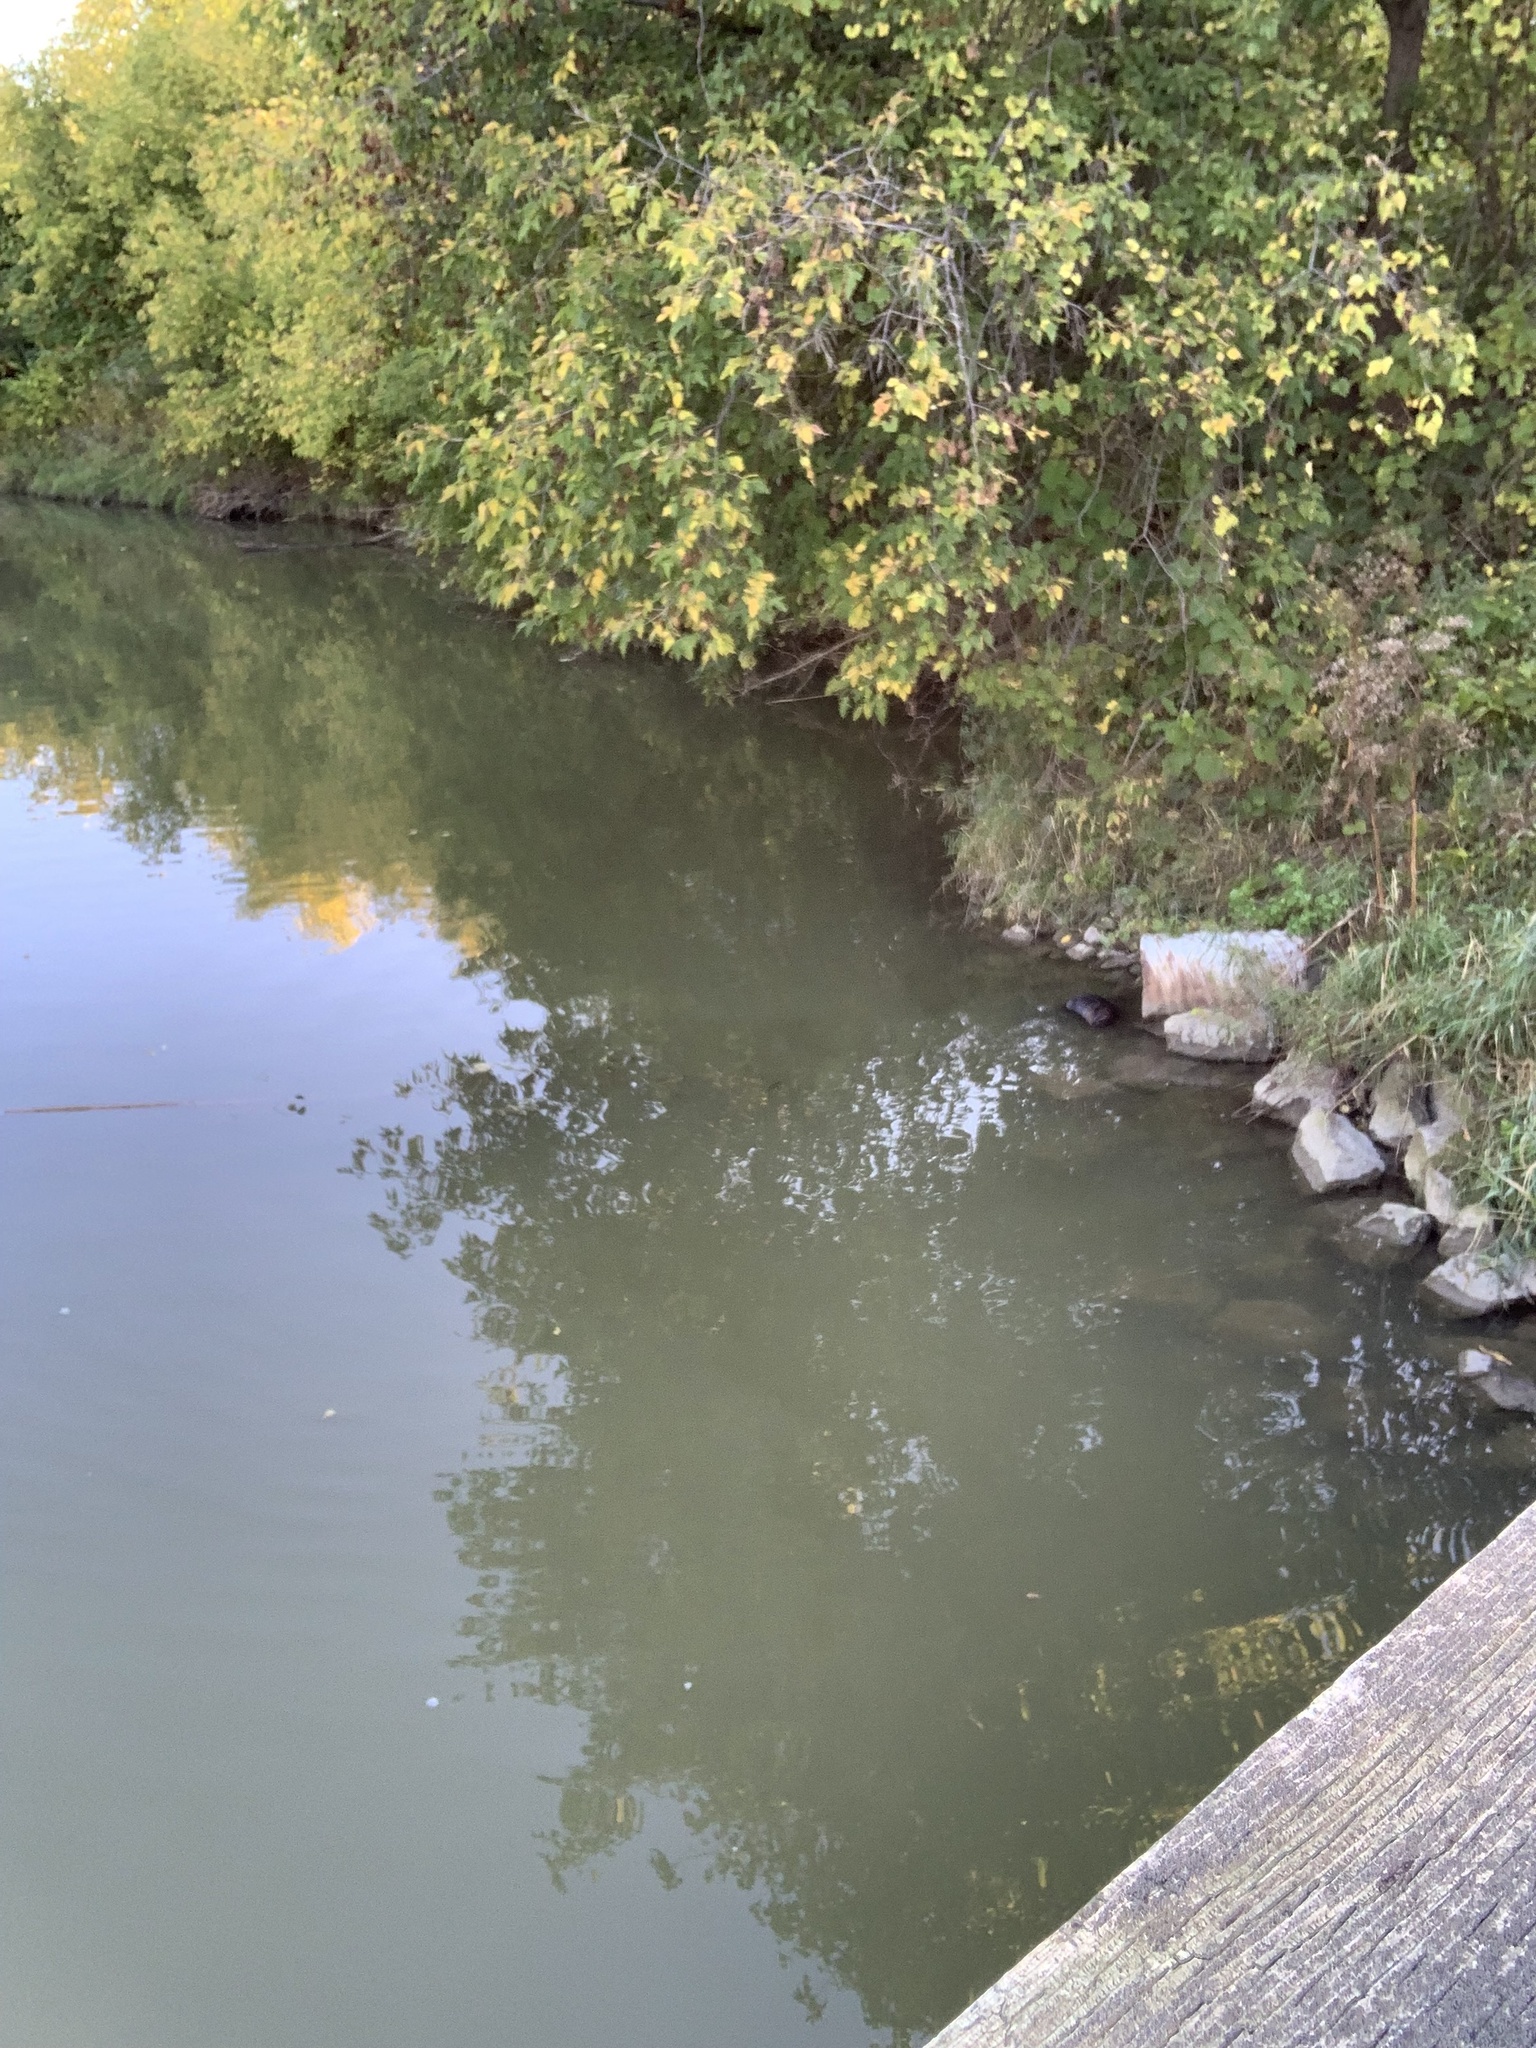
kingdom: Animalia
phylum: Chordata
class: Mammalia
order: Rodentia
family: Castoridae
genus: Castor
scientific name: Castor canadensis
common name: American beaver
